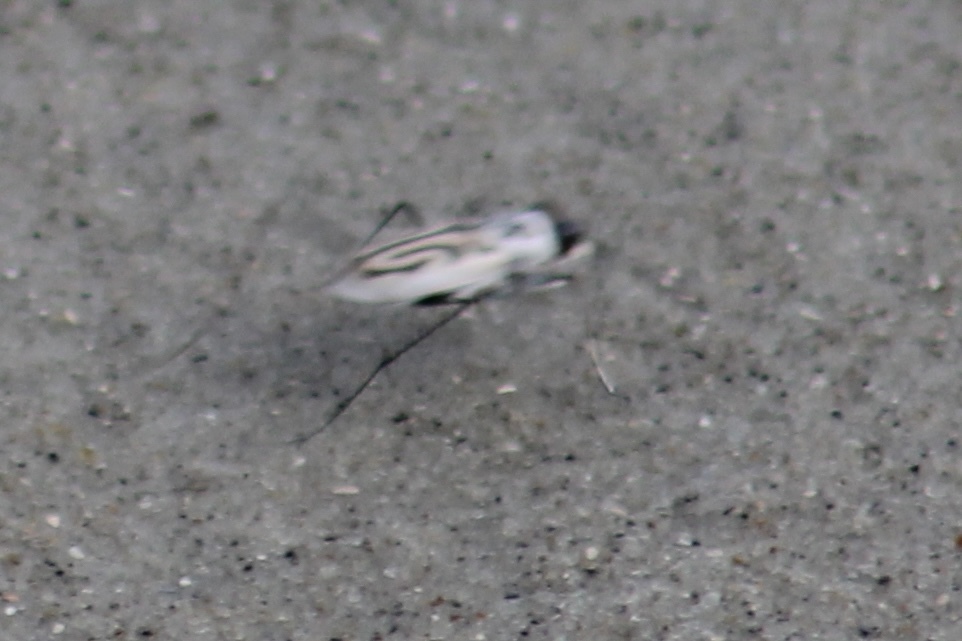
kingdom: Animalia
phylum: Arthropoda
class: Insecta
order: Coleoptera
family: Carabidae
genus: Habroscelimorpha
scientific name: Habroscelimorpha dorsalis
